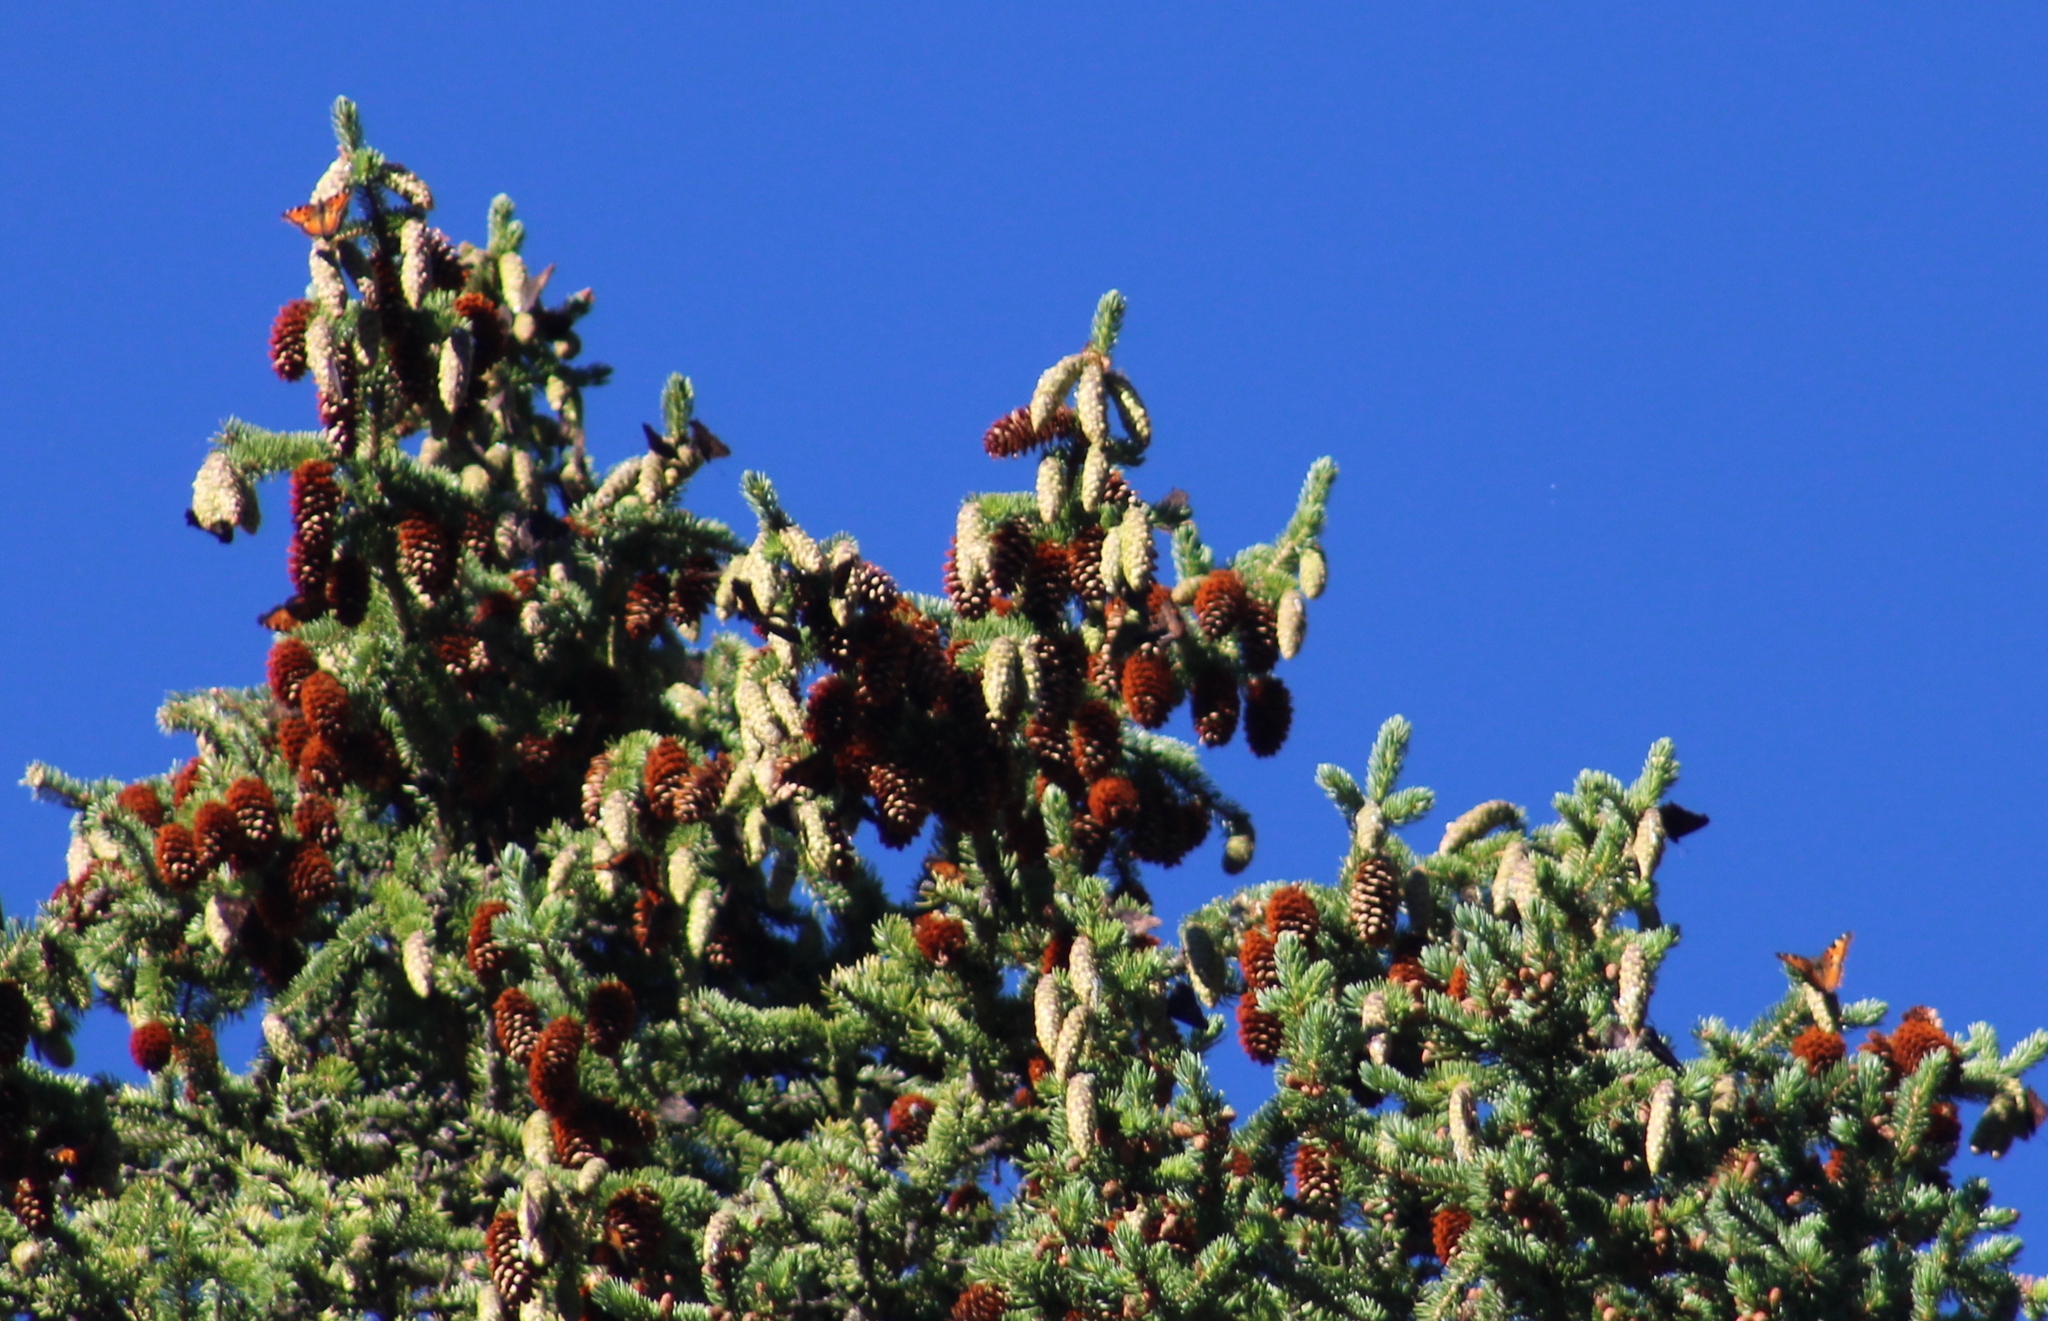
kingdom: Animalia
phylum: Arthropoda
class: Insecta
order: Lepidoptera
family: Nymphalidae
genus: Nymphalis
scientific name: Nymphalis californica
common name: California tortoiseshell
